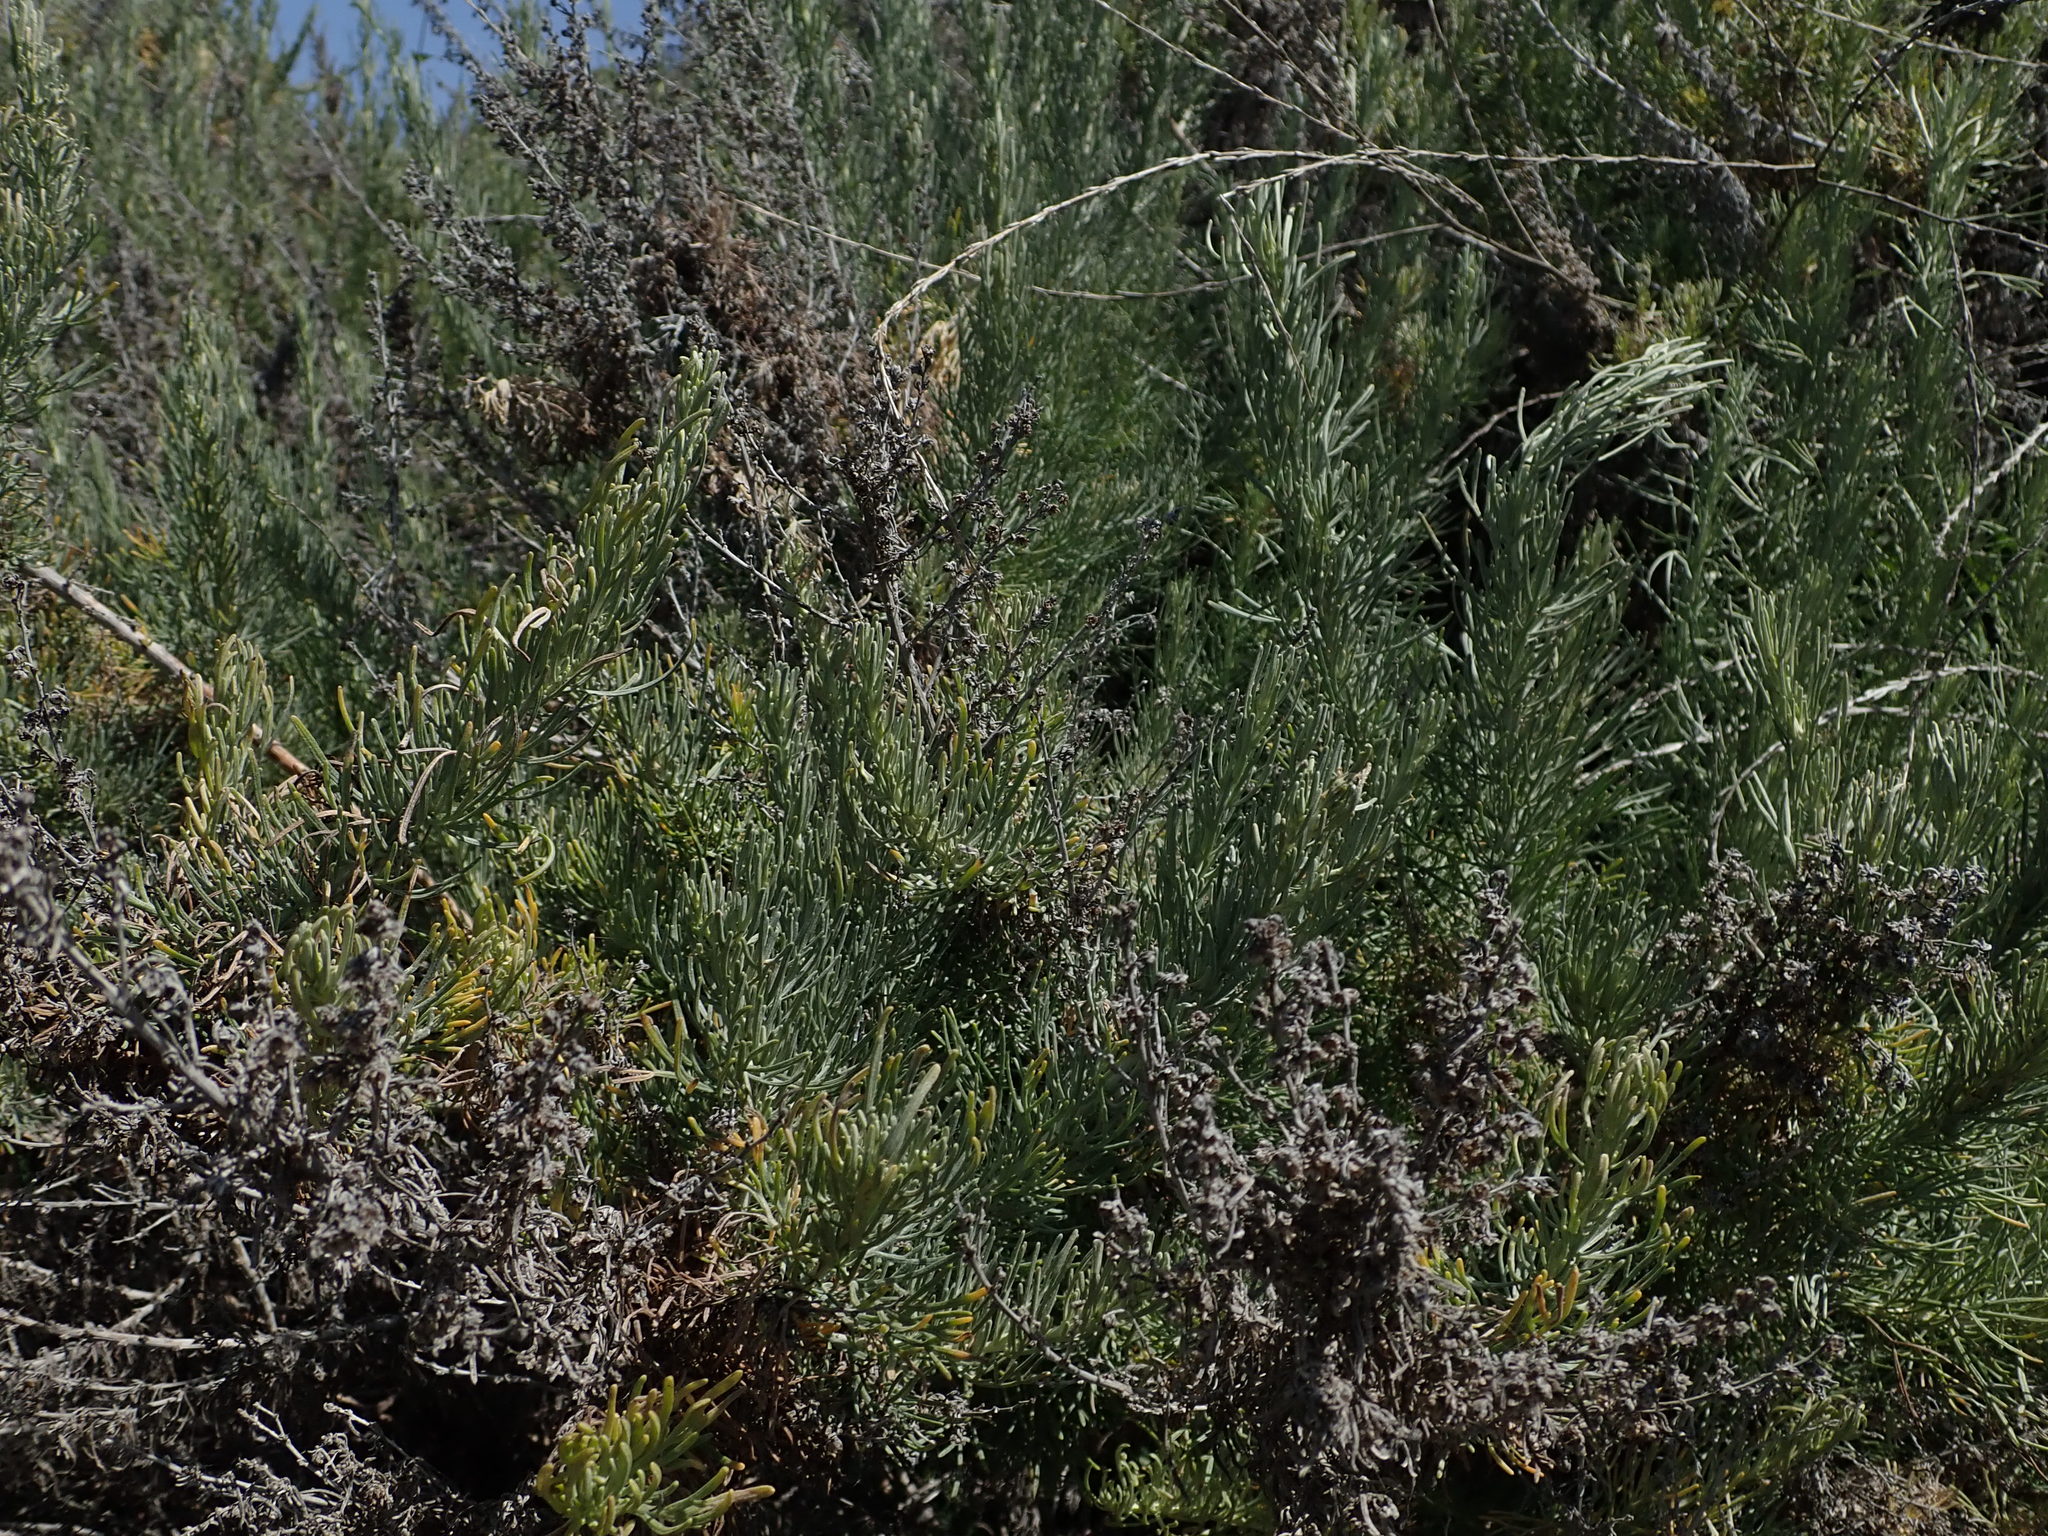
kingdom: Plantae
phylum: Tracheophyta
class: Magnoliopsida
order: Asterales
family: Asteraceae
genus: Artemisia
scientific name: Artemisia californica
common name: California sagebrush
